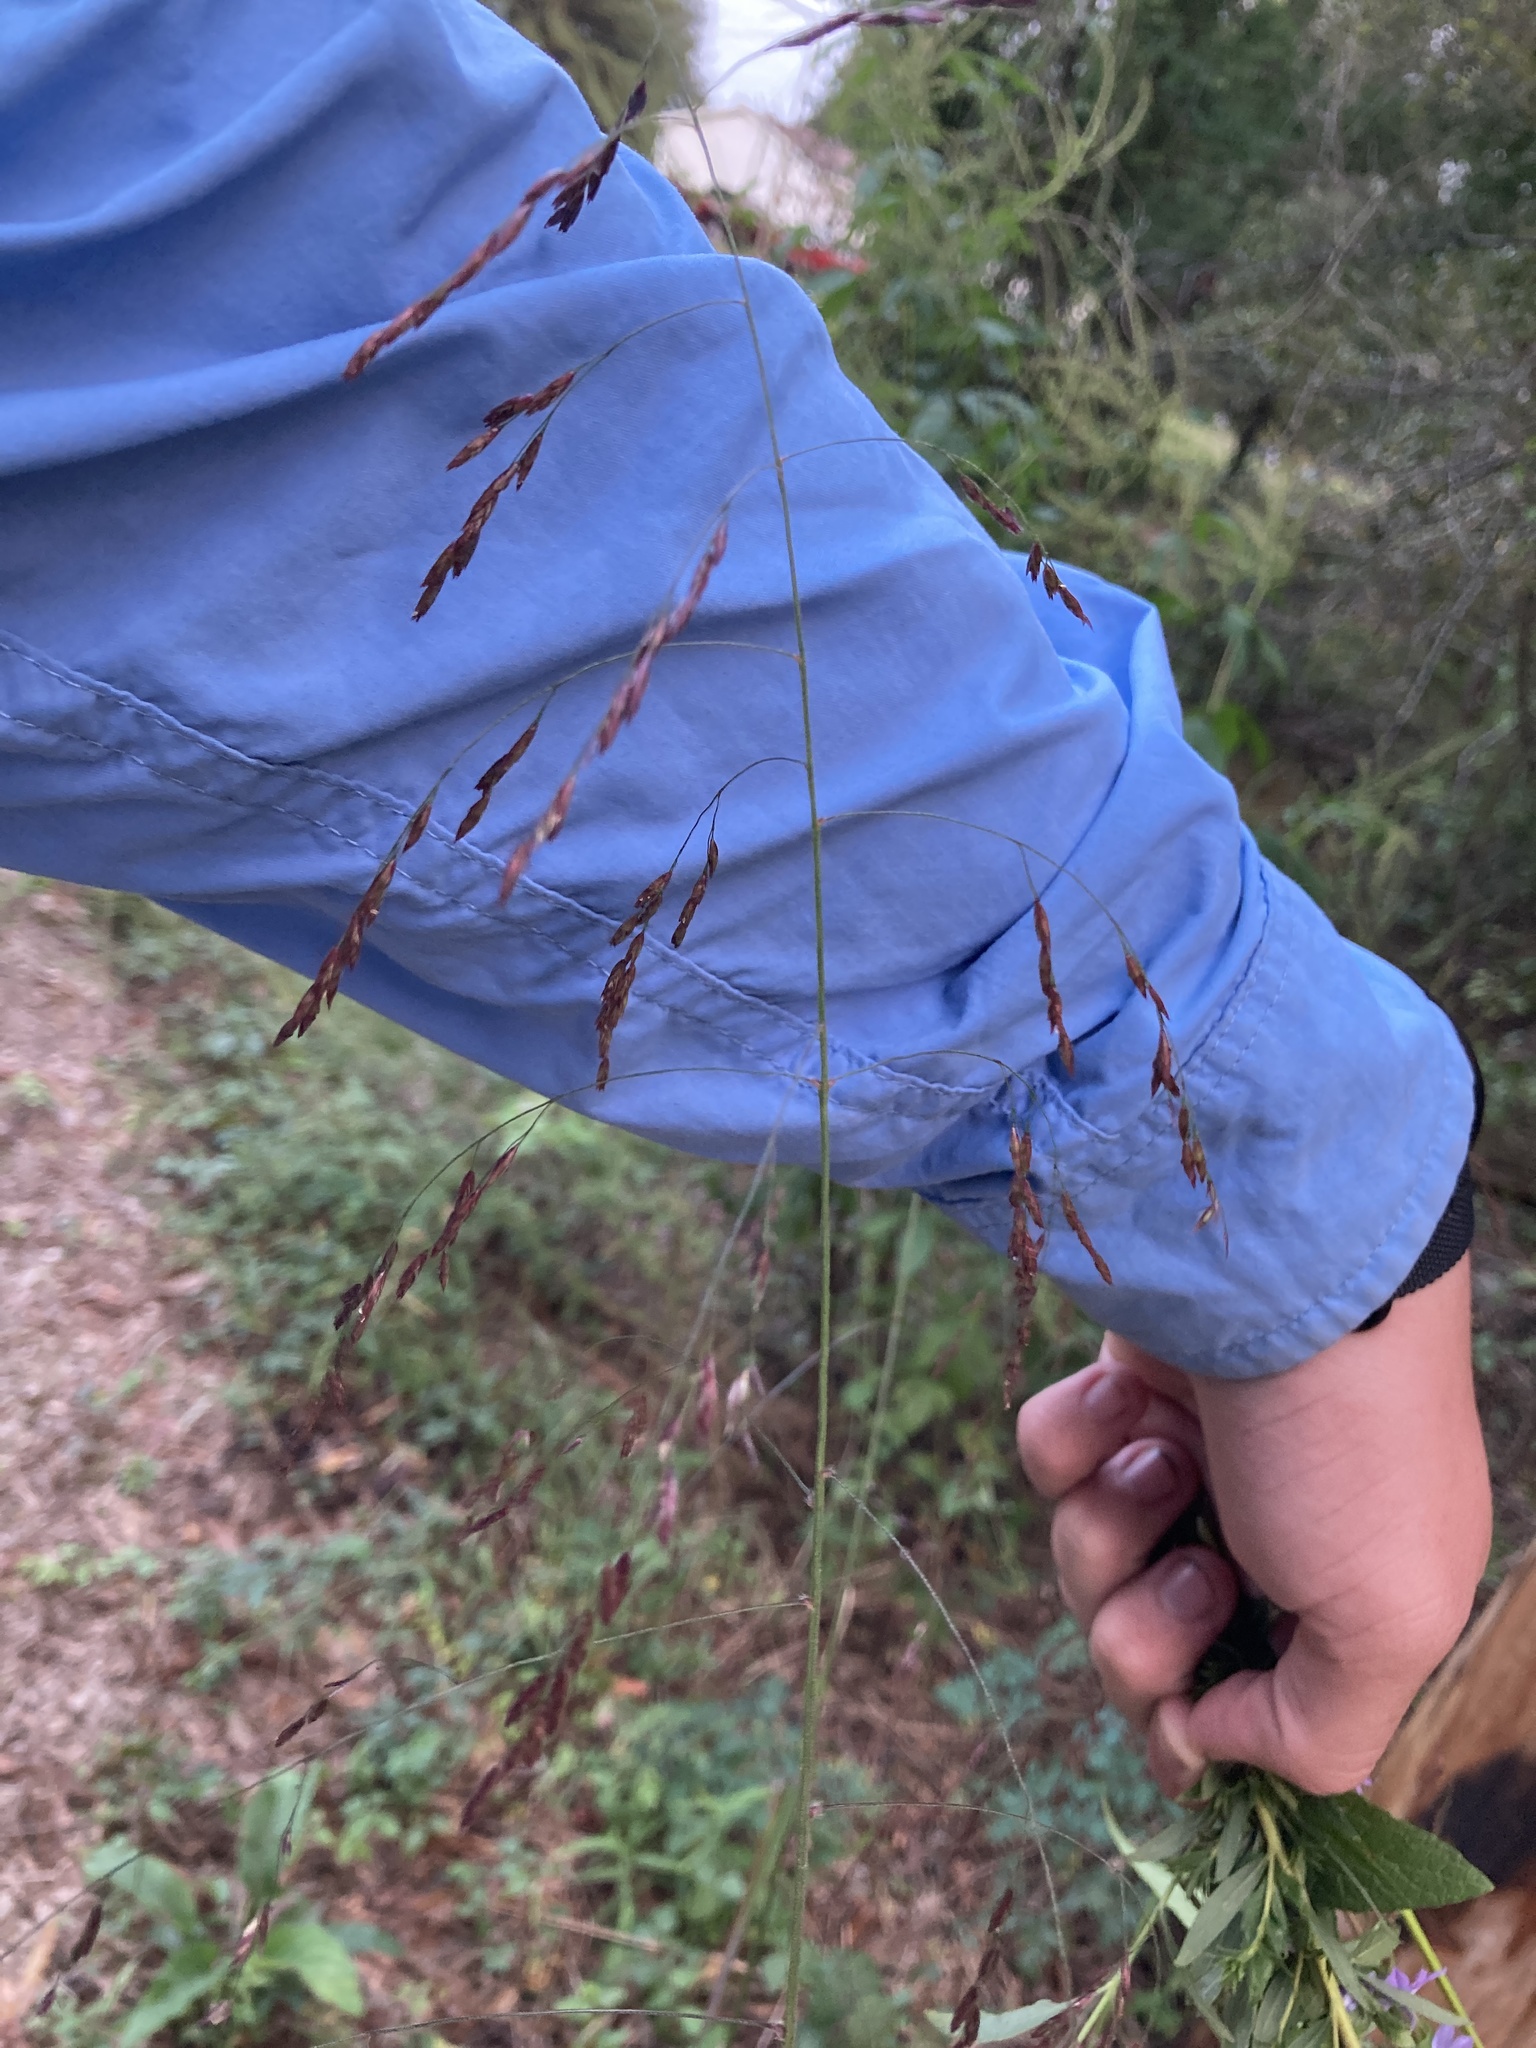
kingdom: Plantae
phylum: Tracheophyta
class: Liliopsida
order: Poales
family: Poaceae
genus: Tridens
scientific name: Tridens flavus
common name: Purpletop
